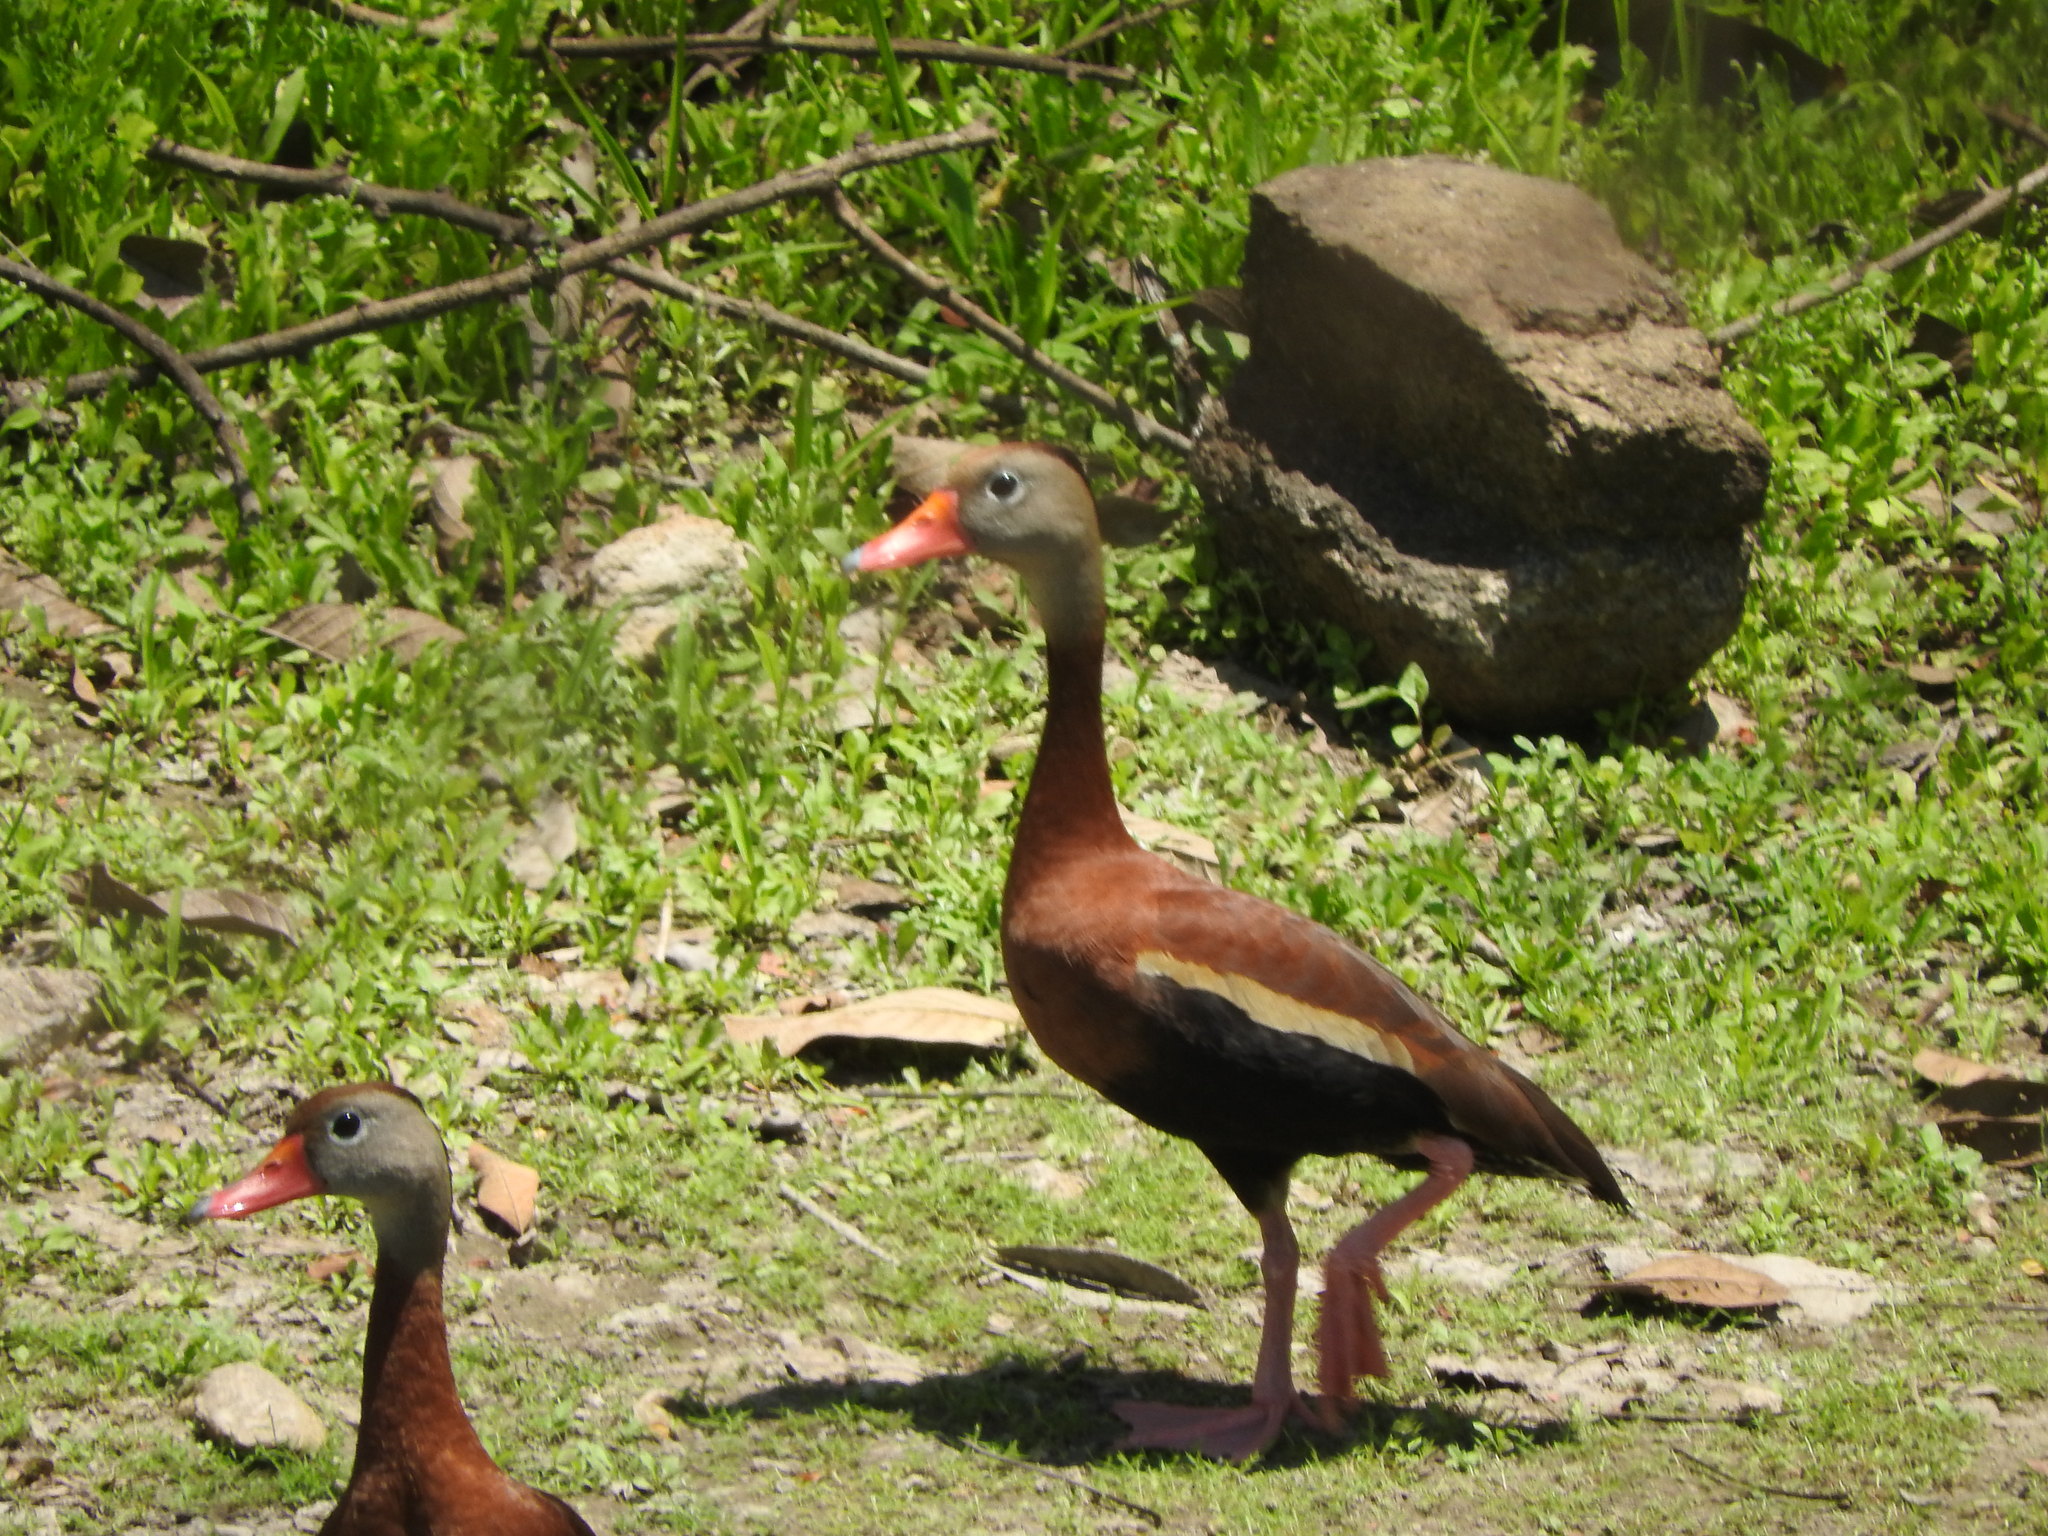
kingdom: Animalia
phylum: Chordata
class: Aves
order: Anseriformes
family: Anatidae
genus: Dendrocygna
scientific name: Dendrocygna autumnalis
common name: Black-bellied whistling duck
